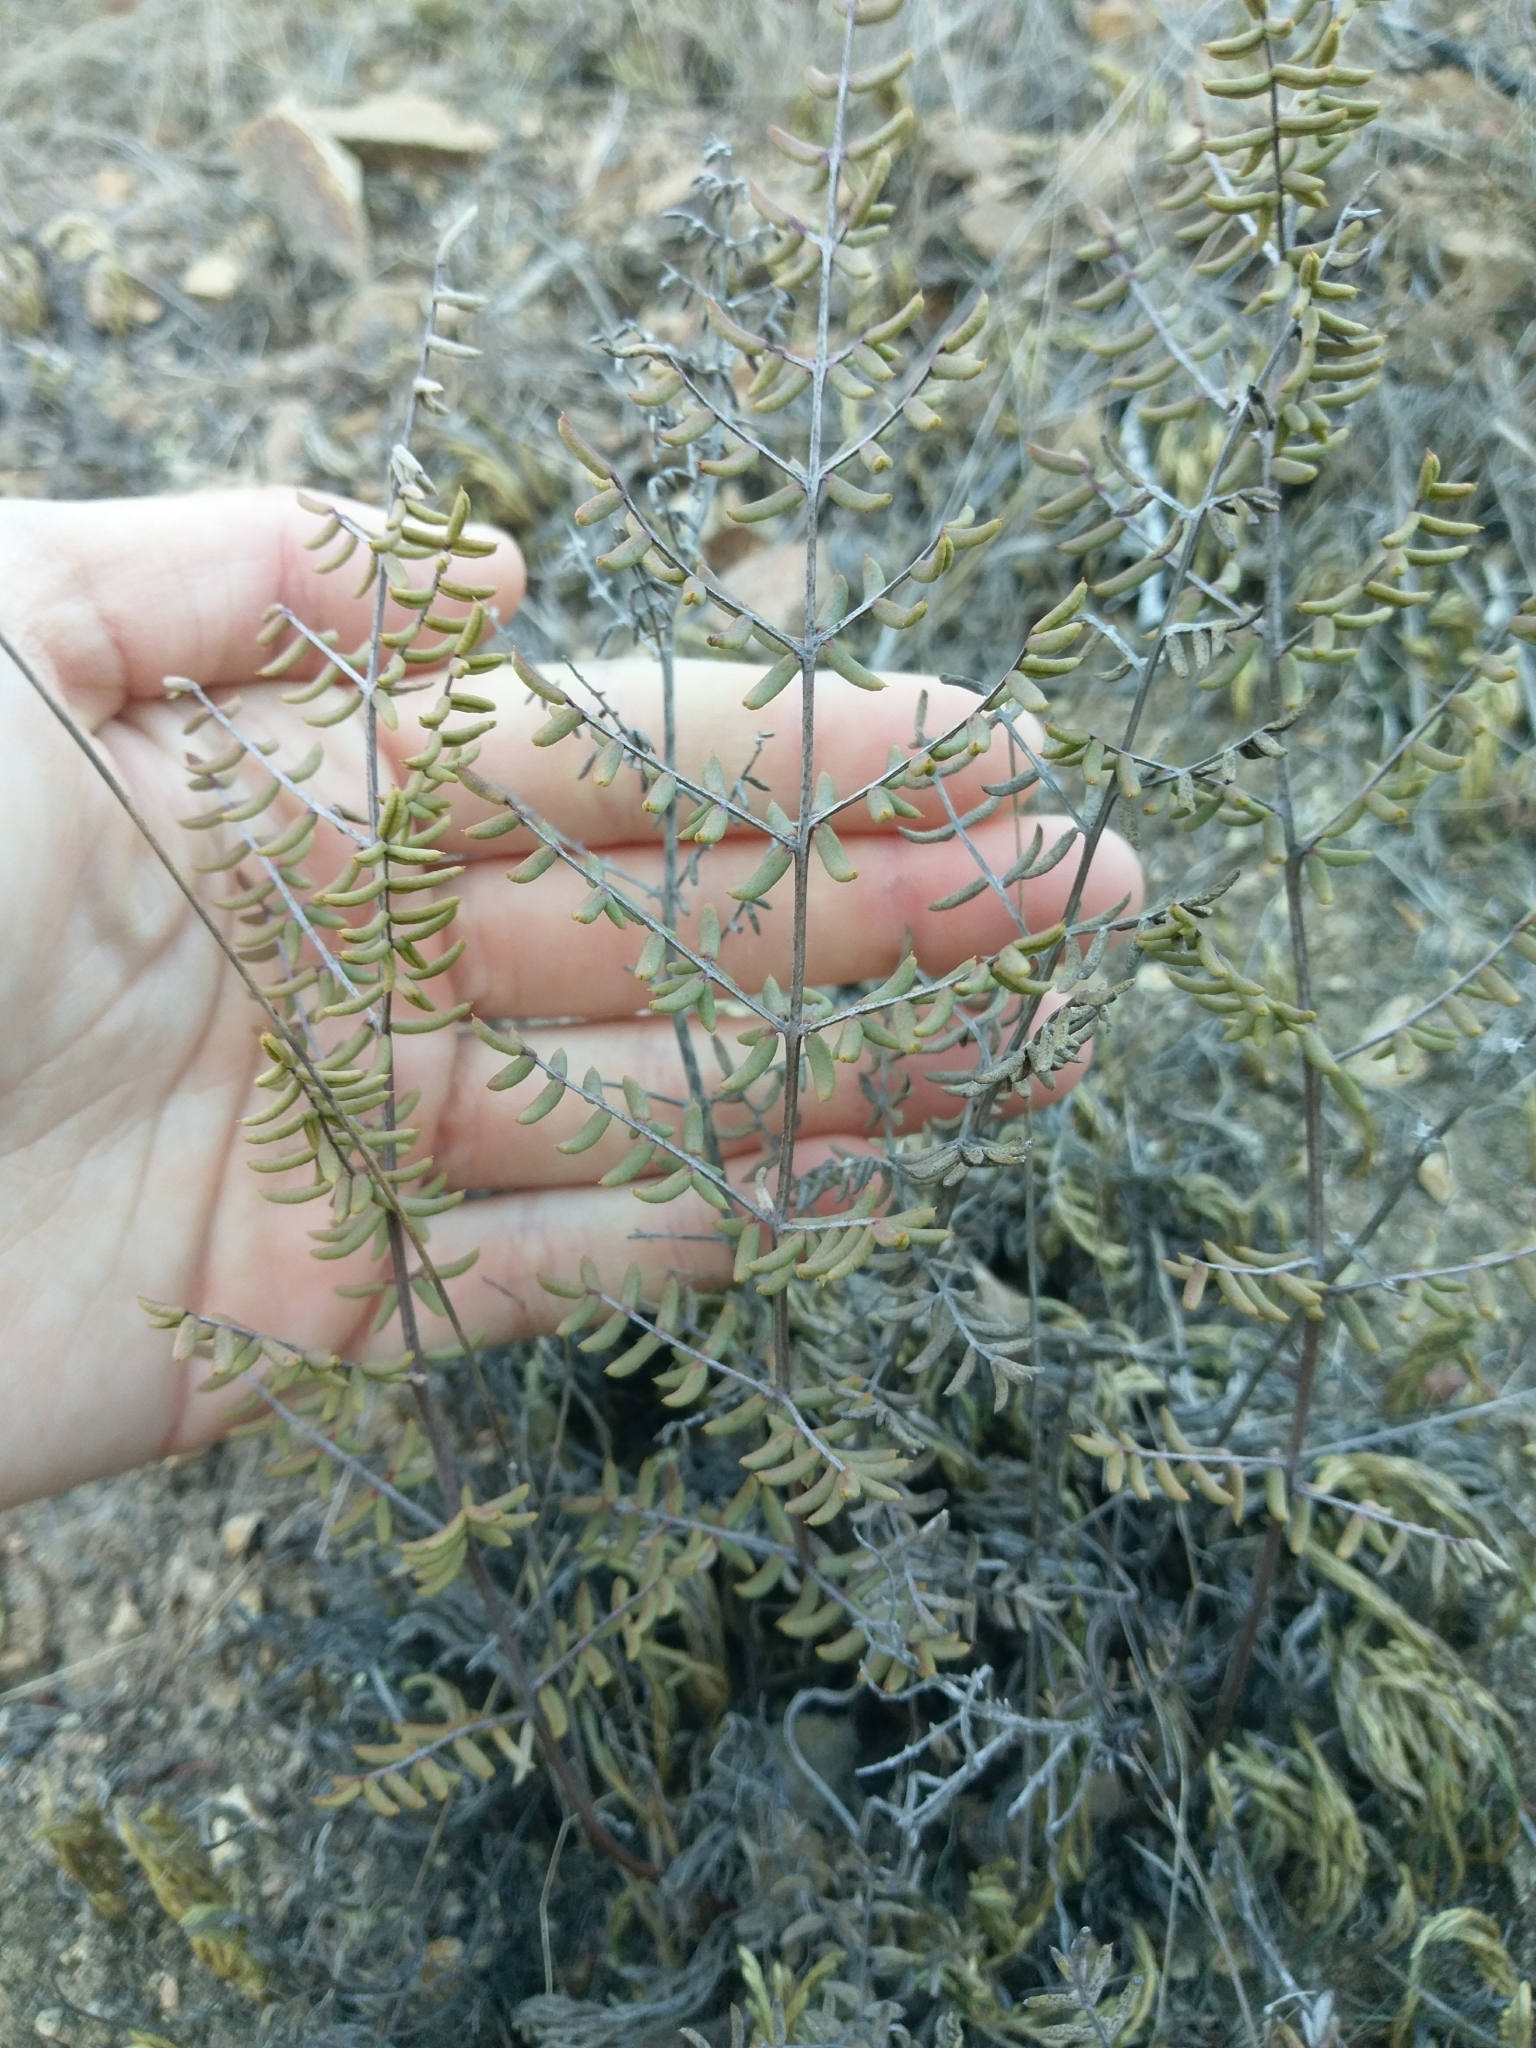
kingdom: Plantae
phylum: Tracheophyta
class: Polypodiopsida
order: Polypodiales
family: Pteridaceae
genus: Pellaea
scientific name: Pellaea mucronata
